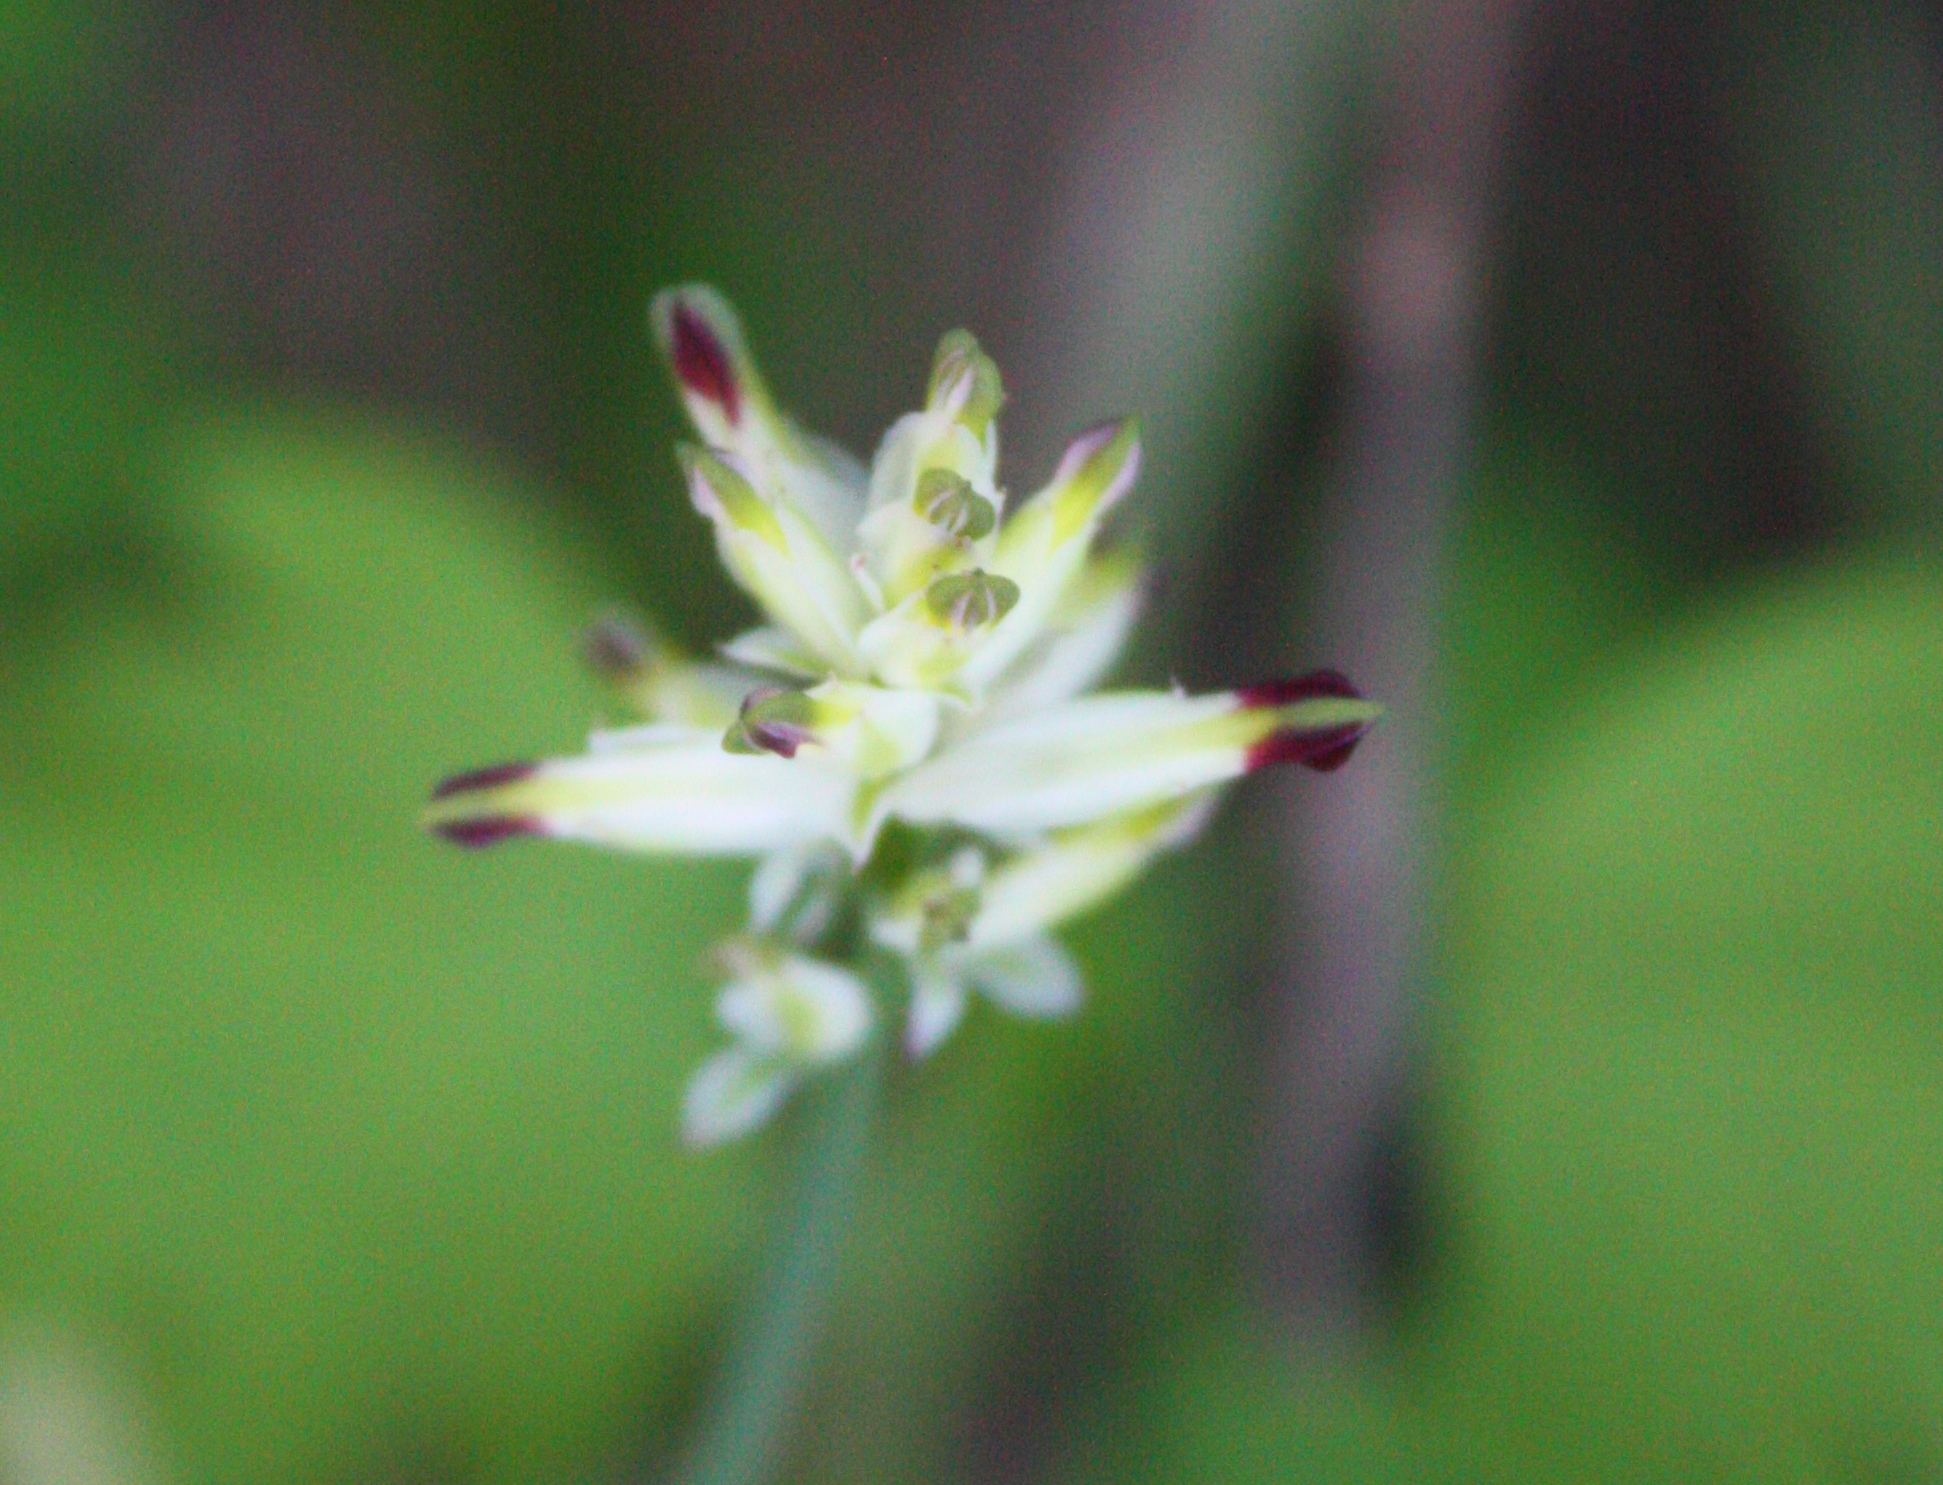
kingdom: Plantae
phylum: Tracheophyta
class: Magnoliopsida
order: Ranunculales
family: Papaveraceae
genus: Fumaria
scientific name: Fumaria capreolata
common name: White ramping-fumitory
